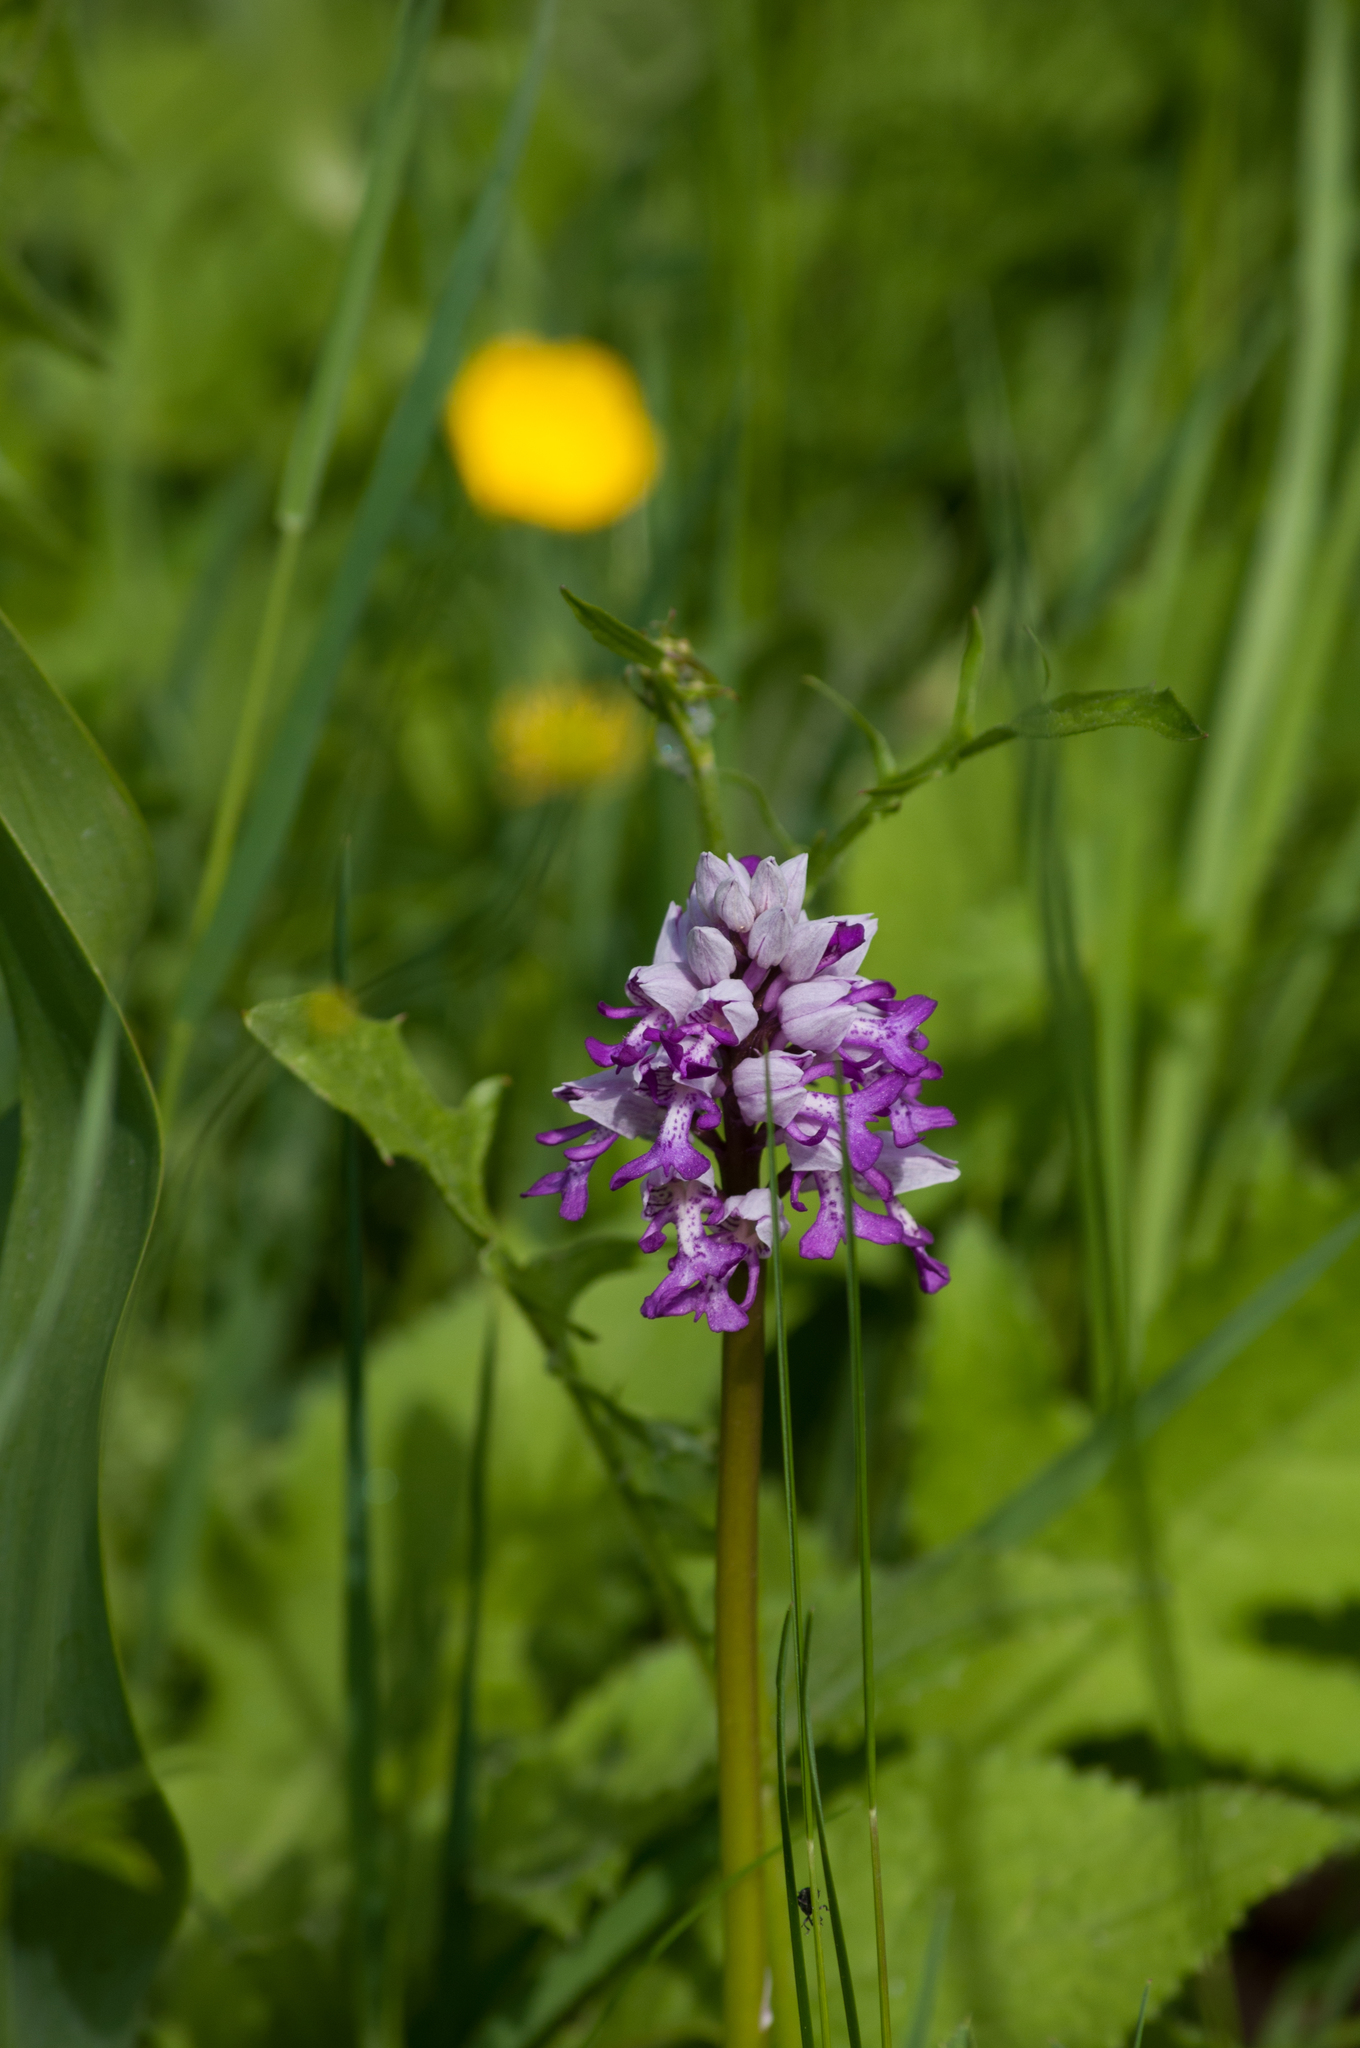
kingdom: Plantae
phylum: Tracheophyta
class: Liliopsida
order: Asparagales
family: Orchidaceae
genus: Orchis
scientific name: Orchis militaris
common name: Military orchid
